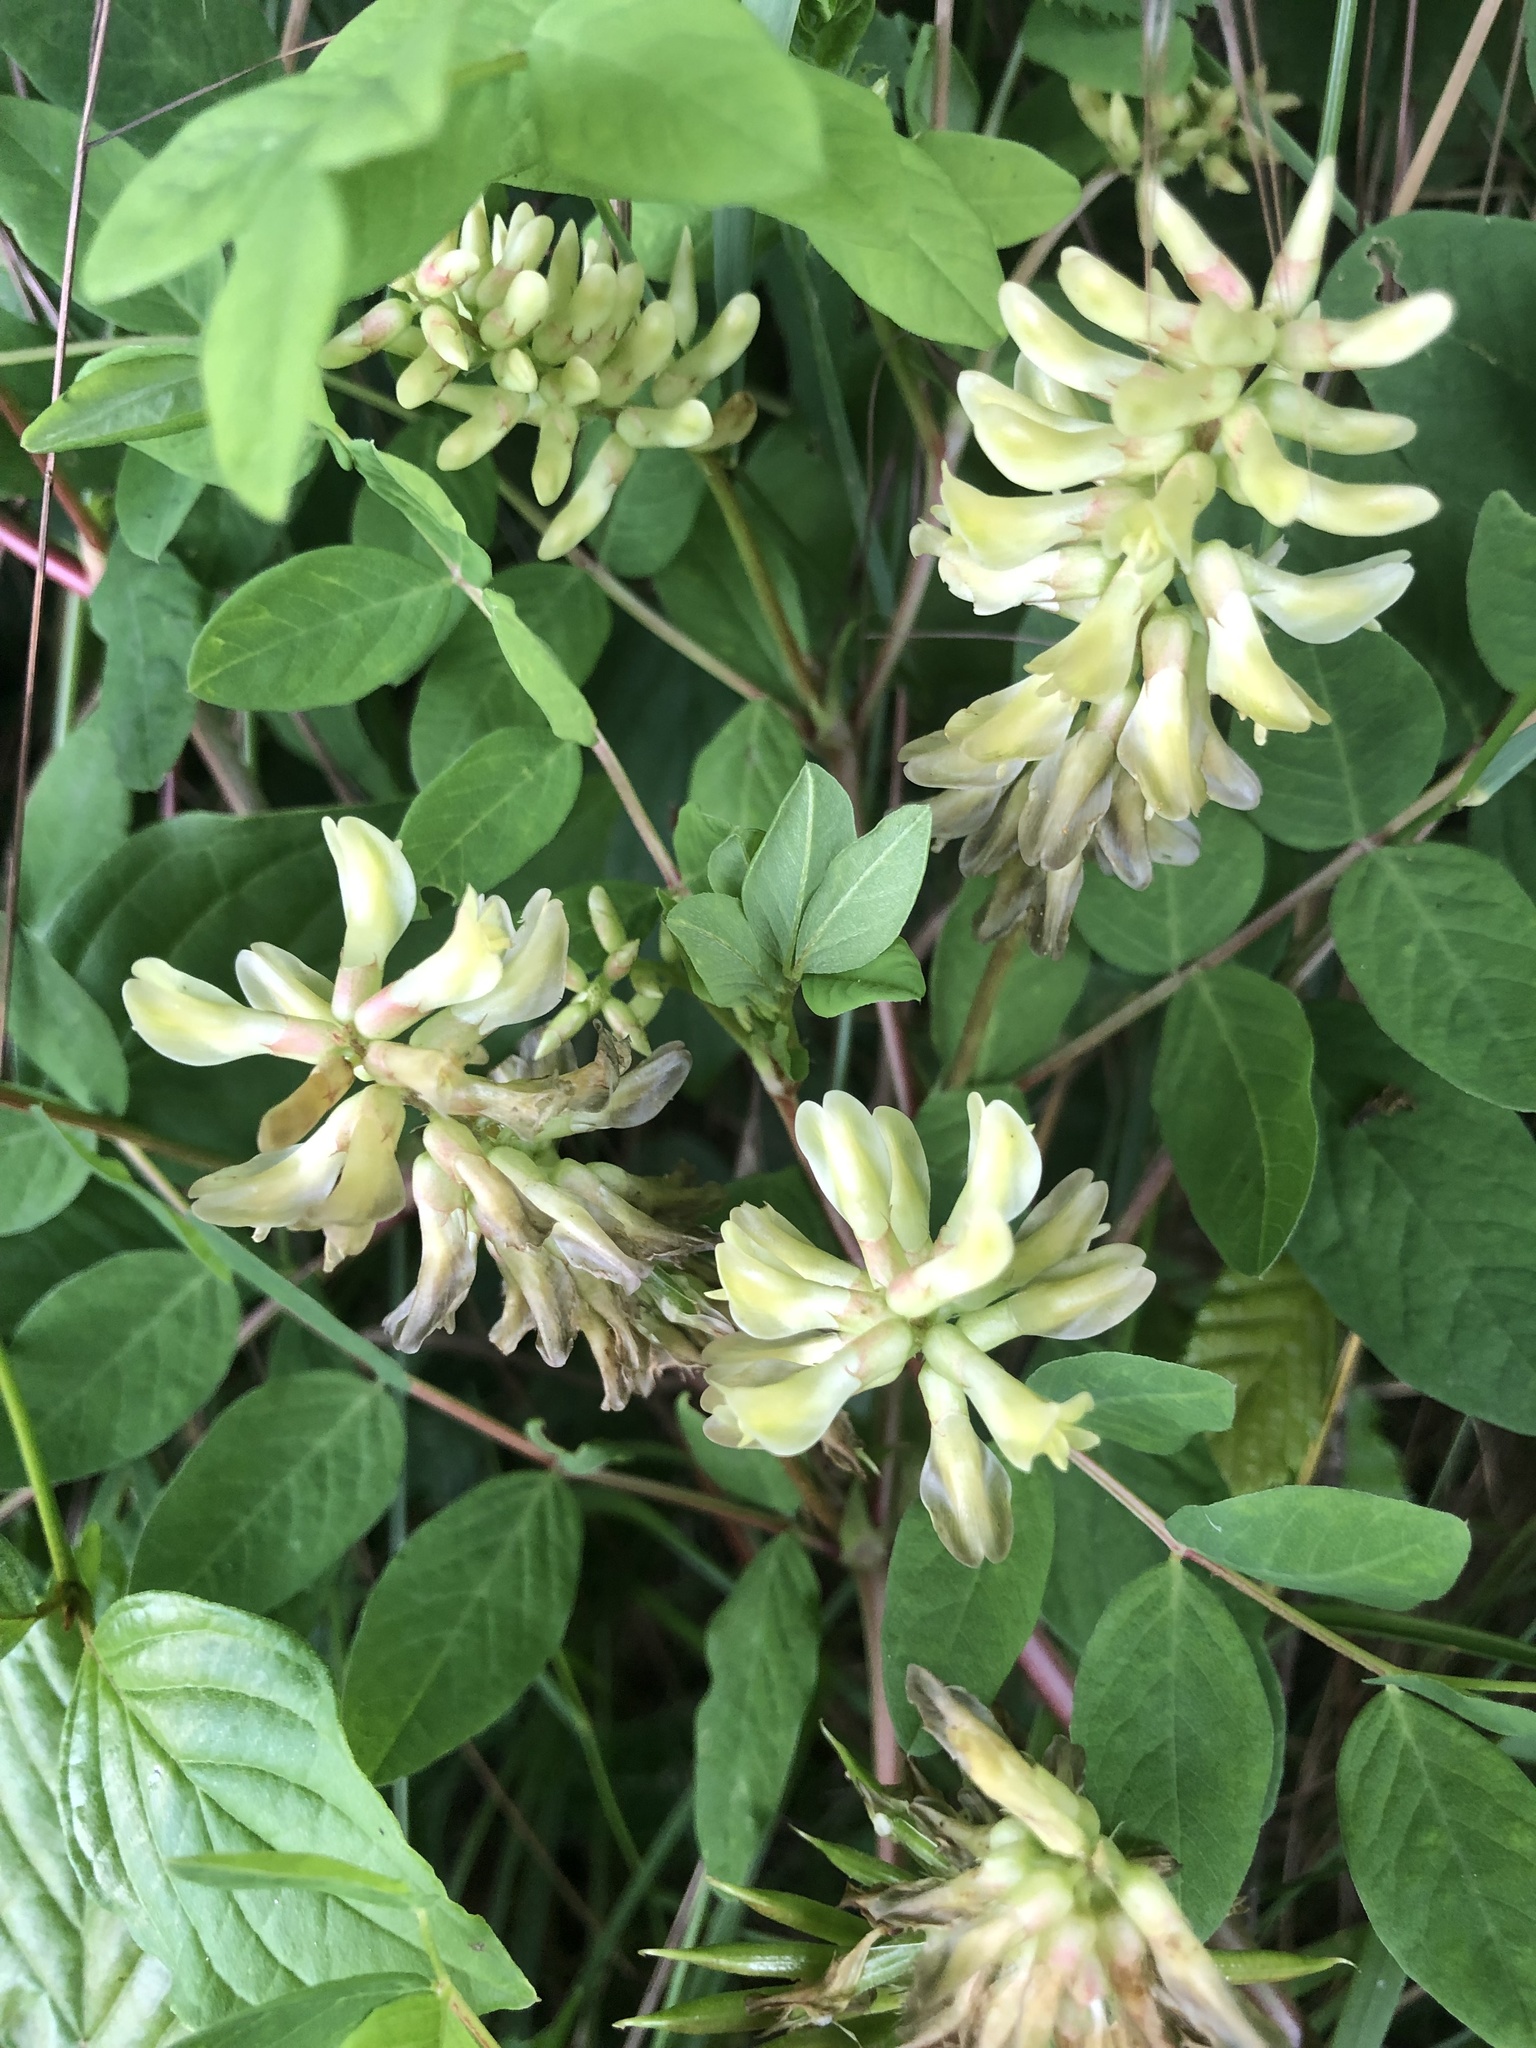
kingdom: Plantae
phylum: Tracheophyta
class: Magnoliopsida
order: Fabales
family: Fabaceae
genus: Astragalus
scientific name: Astragalus glycyphyllos
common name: Wild liquorice
